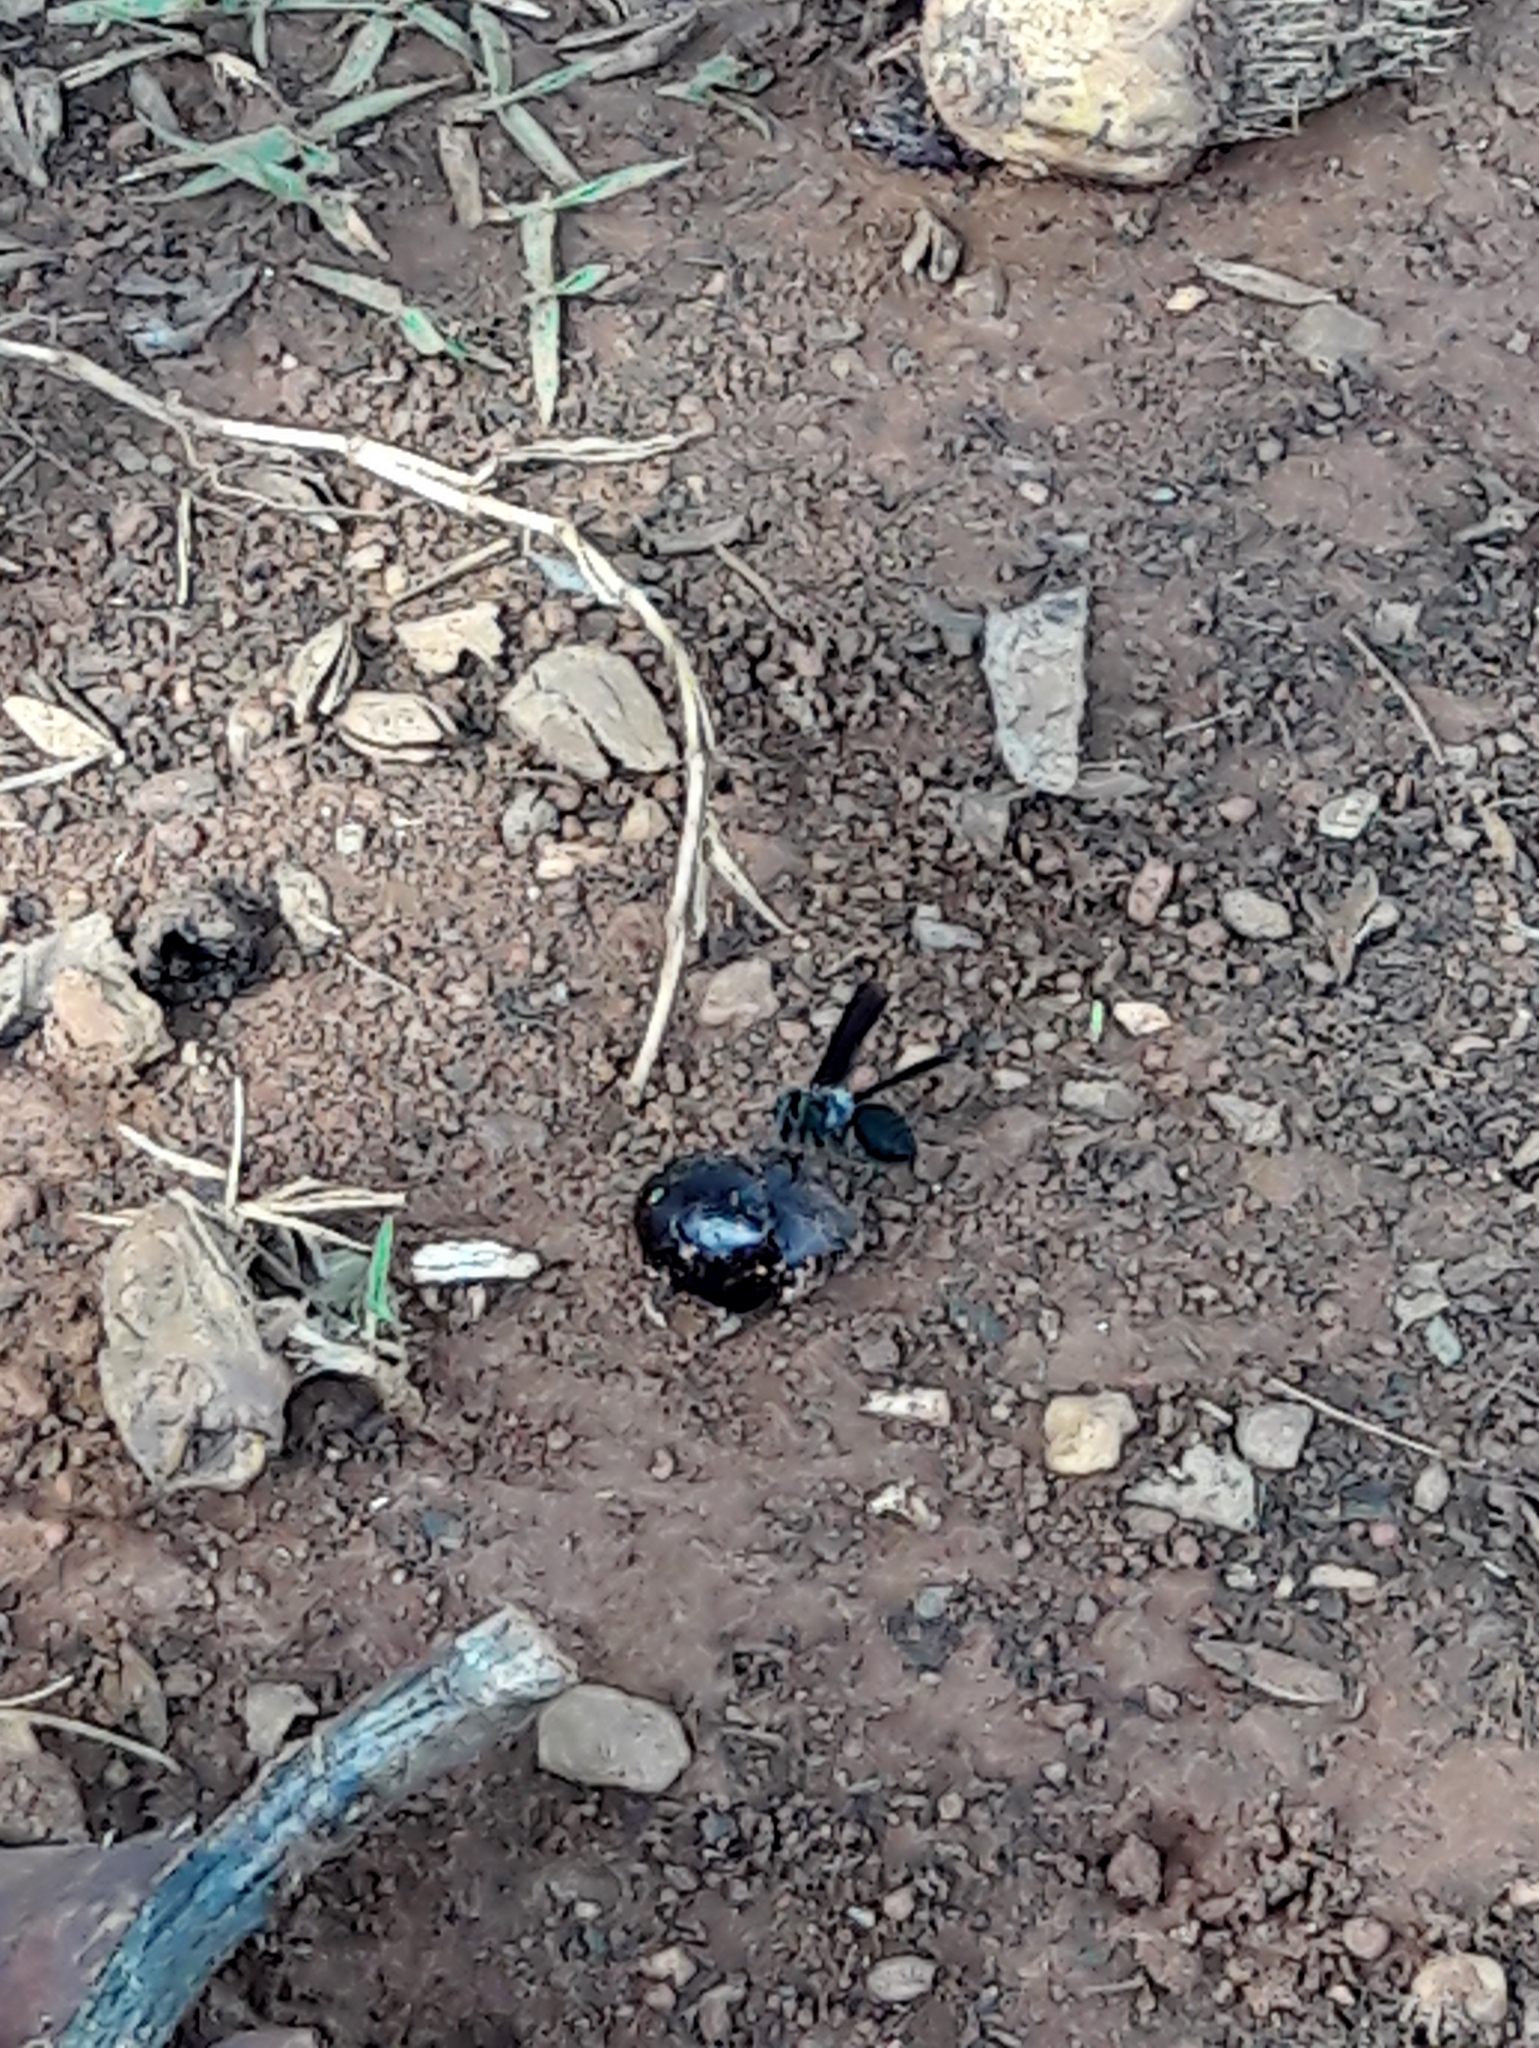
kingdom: Animalia
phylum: Arthropoda
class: Insecta
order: Hymenoptera
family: Vespidae
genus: Synoeca
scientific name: Synoeca surinama
